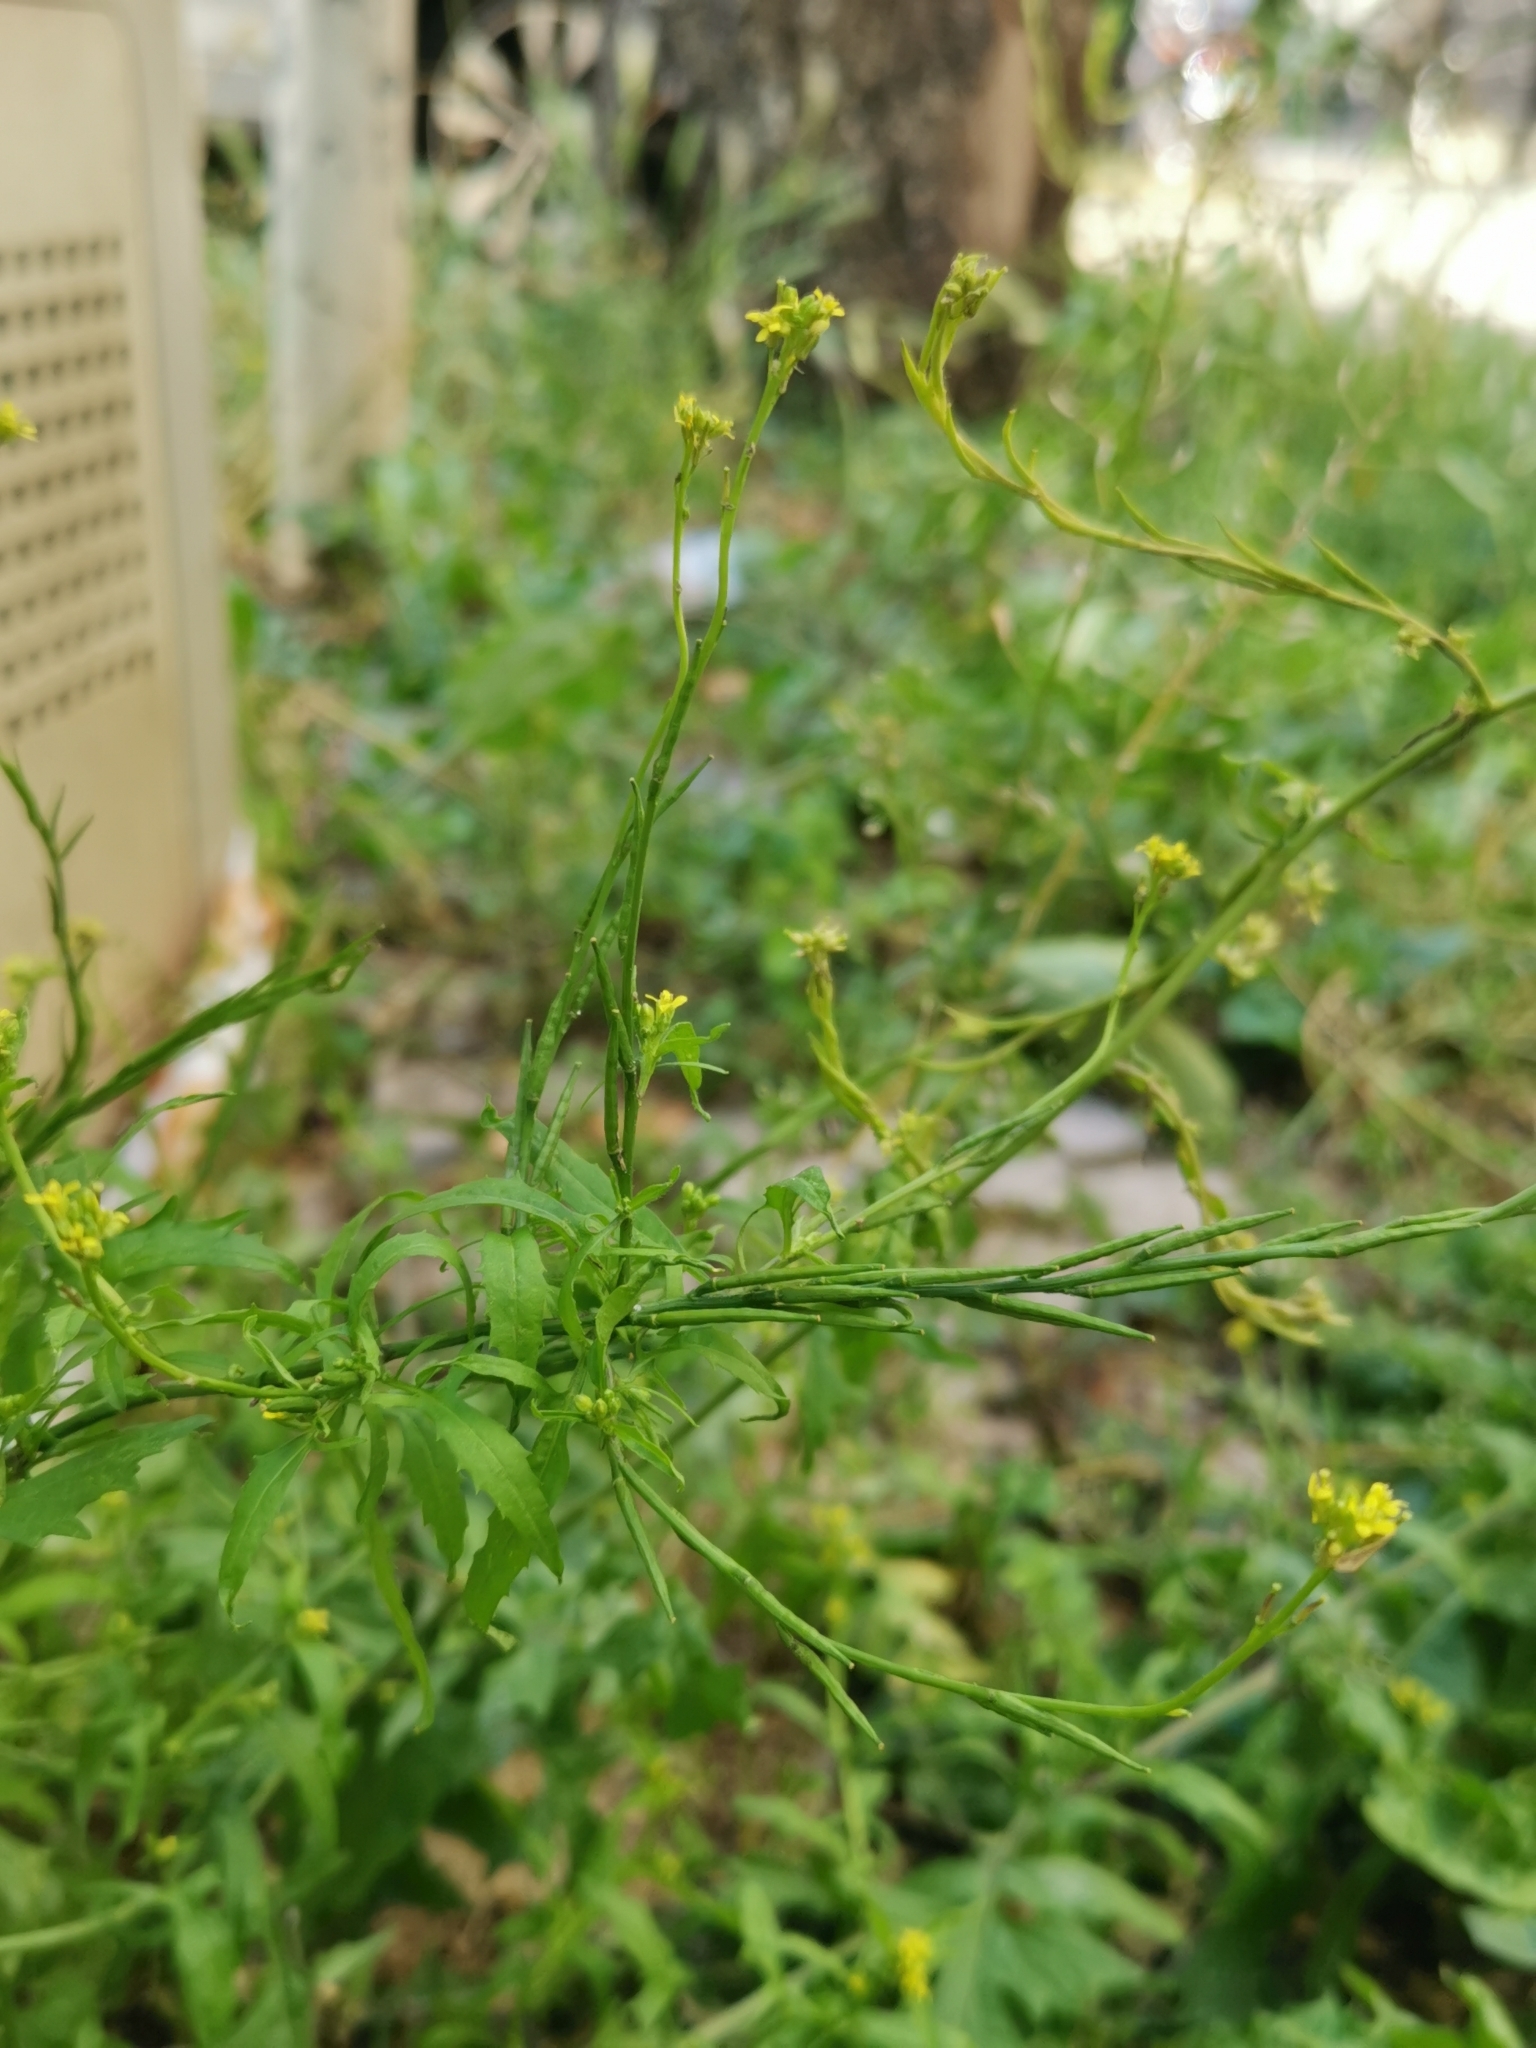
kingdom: Plantae
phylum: Tracheophyta
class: Magnoliopsida
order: Brassicales
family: Brassicaceae
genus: Sisymbrium
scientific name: Sisymbrium officinale
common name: Hedge mustard
